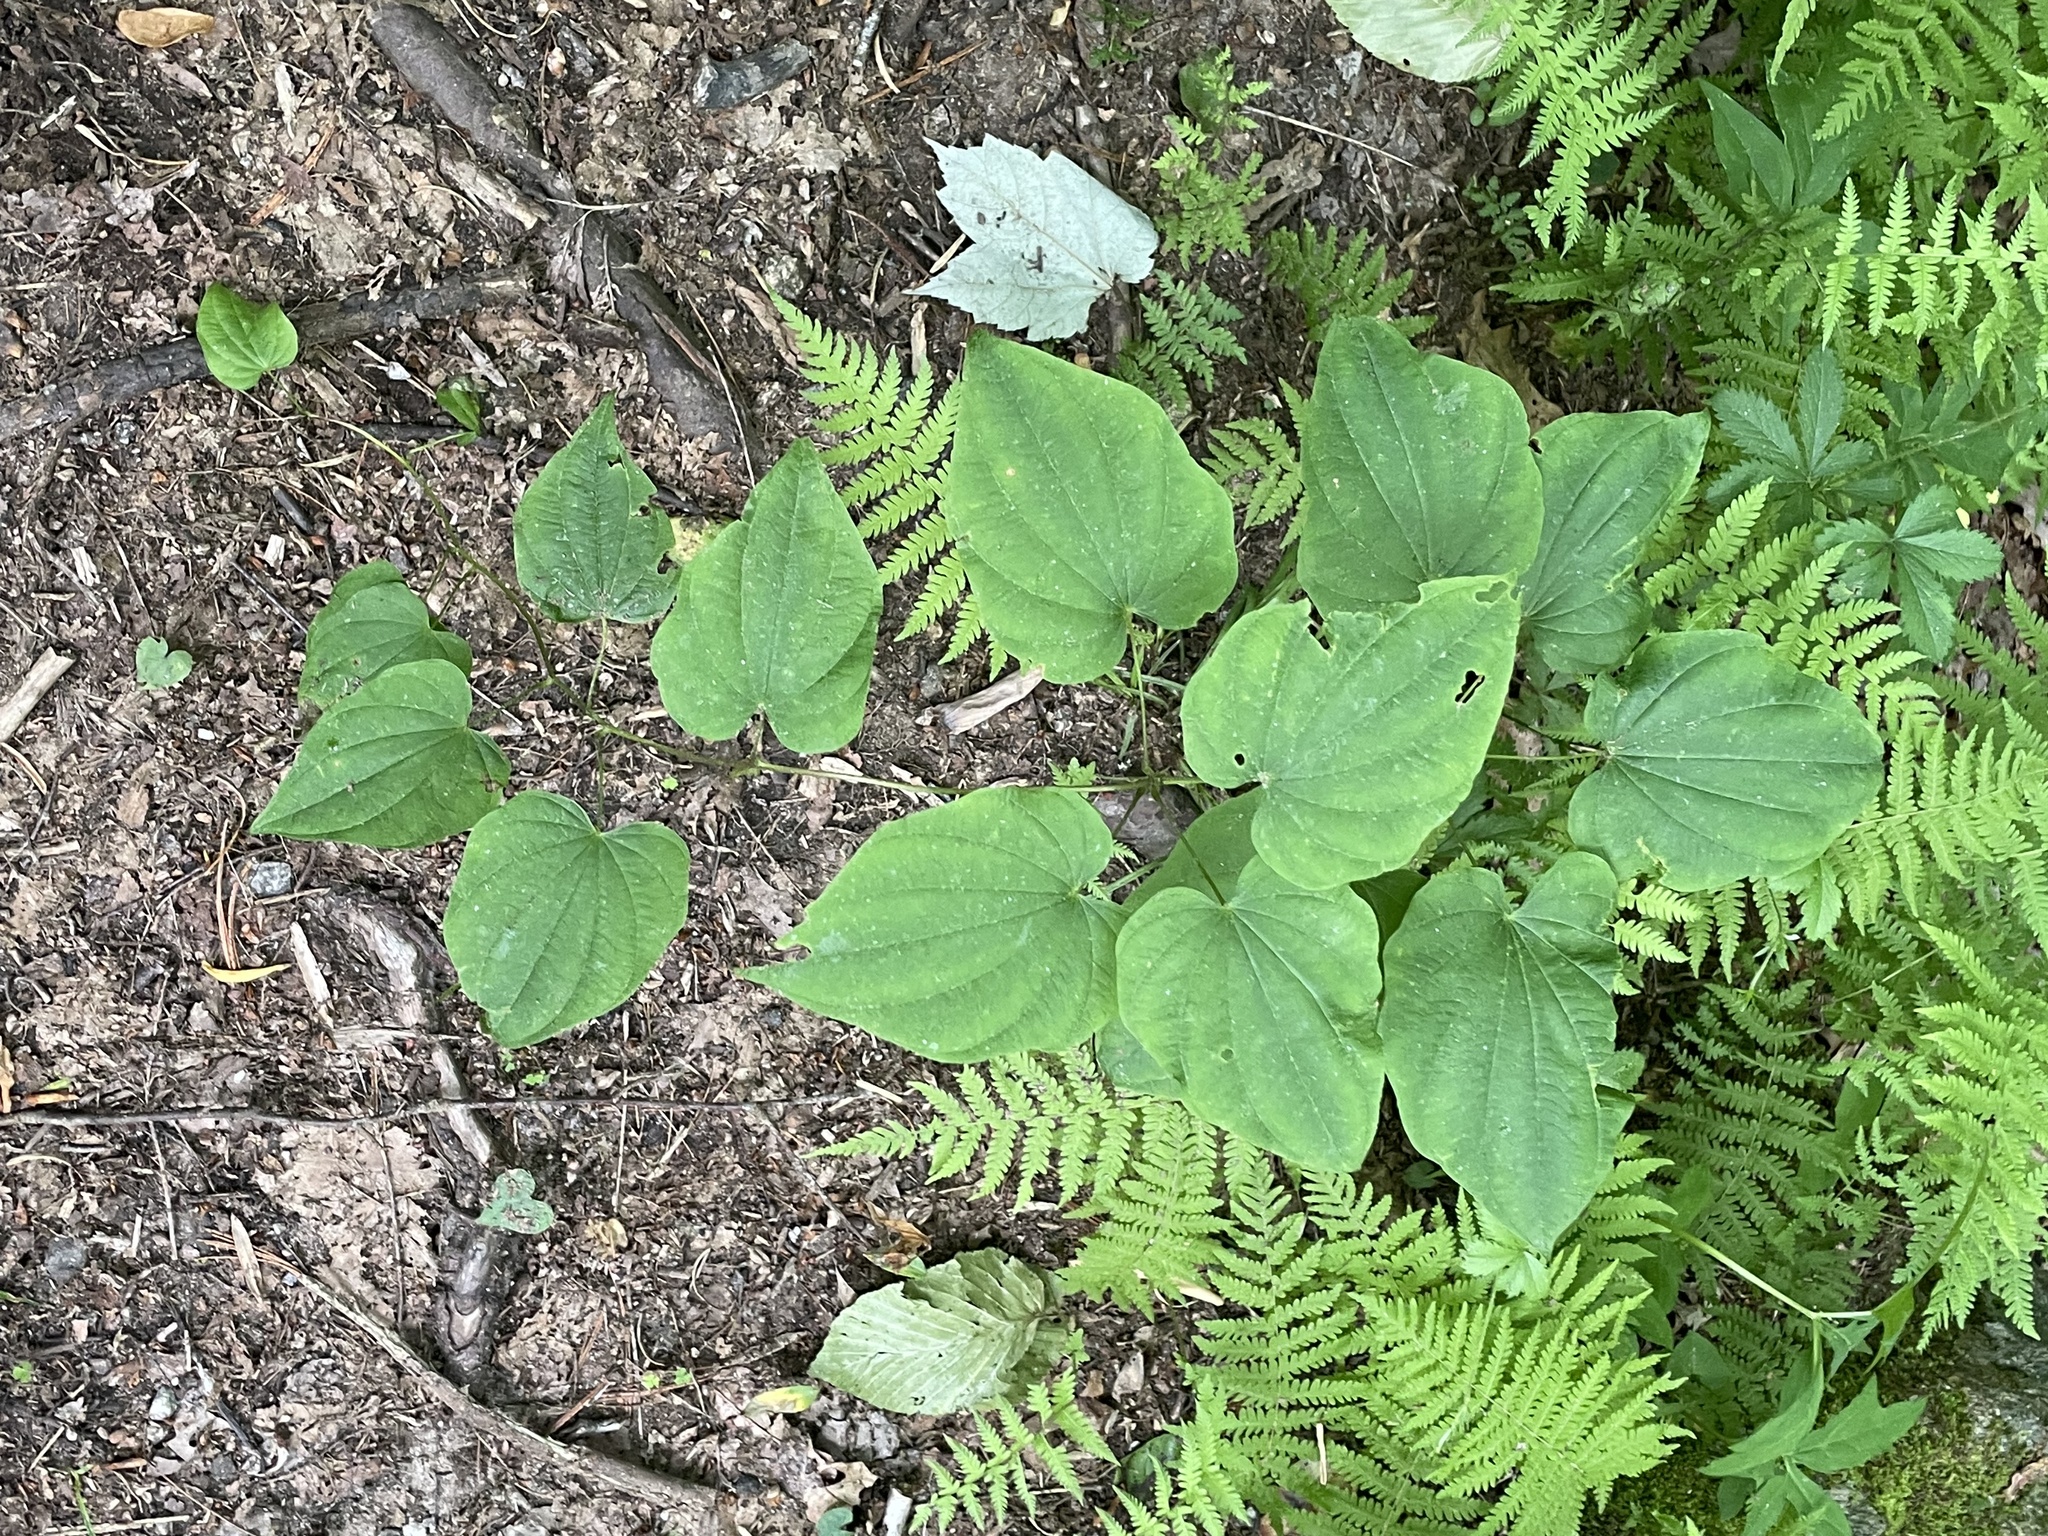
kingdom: Plantae
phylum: Tracheophyta
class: Liliopsida
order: Dioscoreales
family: Dioscoreaceae
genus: Dioscorea
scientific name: Dioscorea villosa
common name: Wild yam
